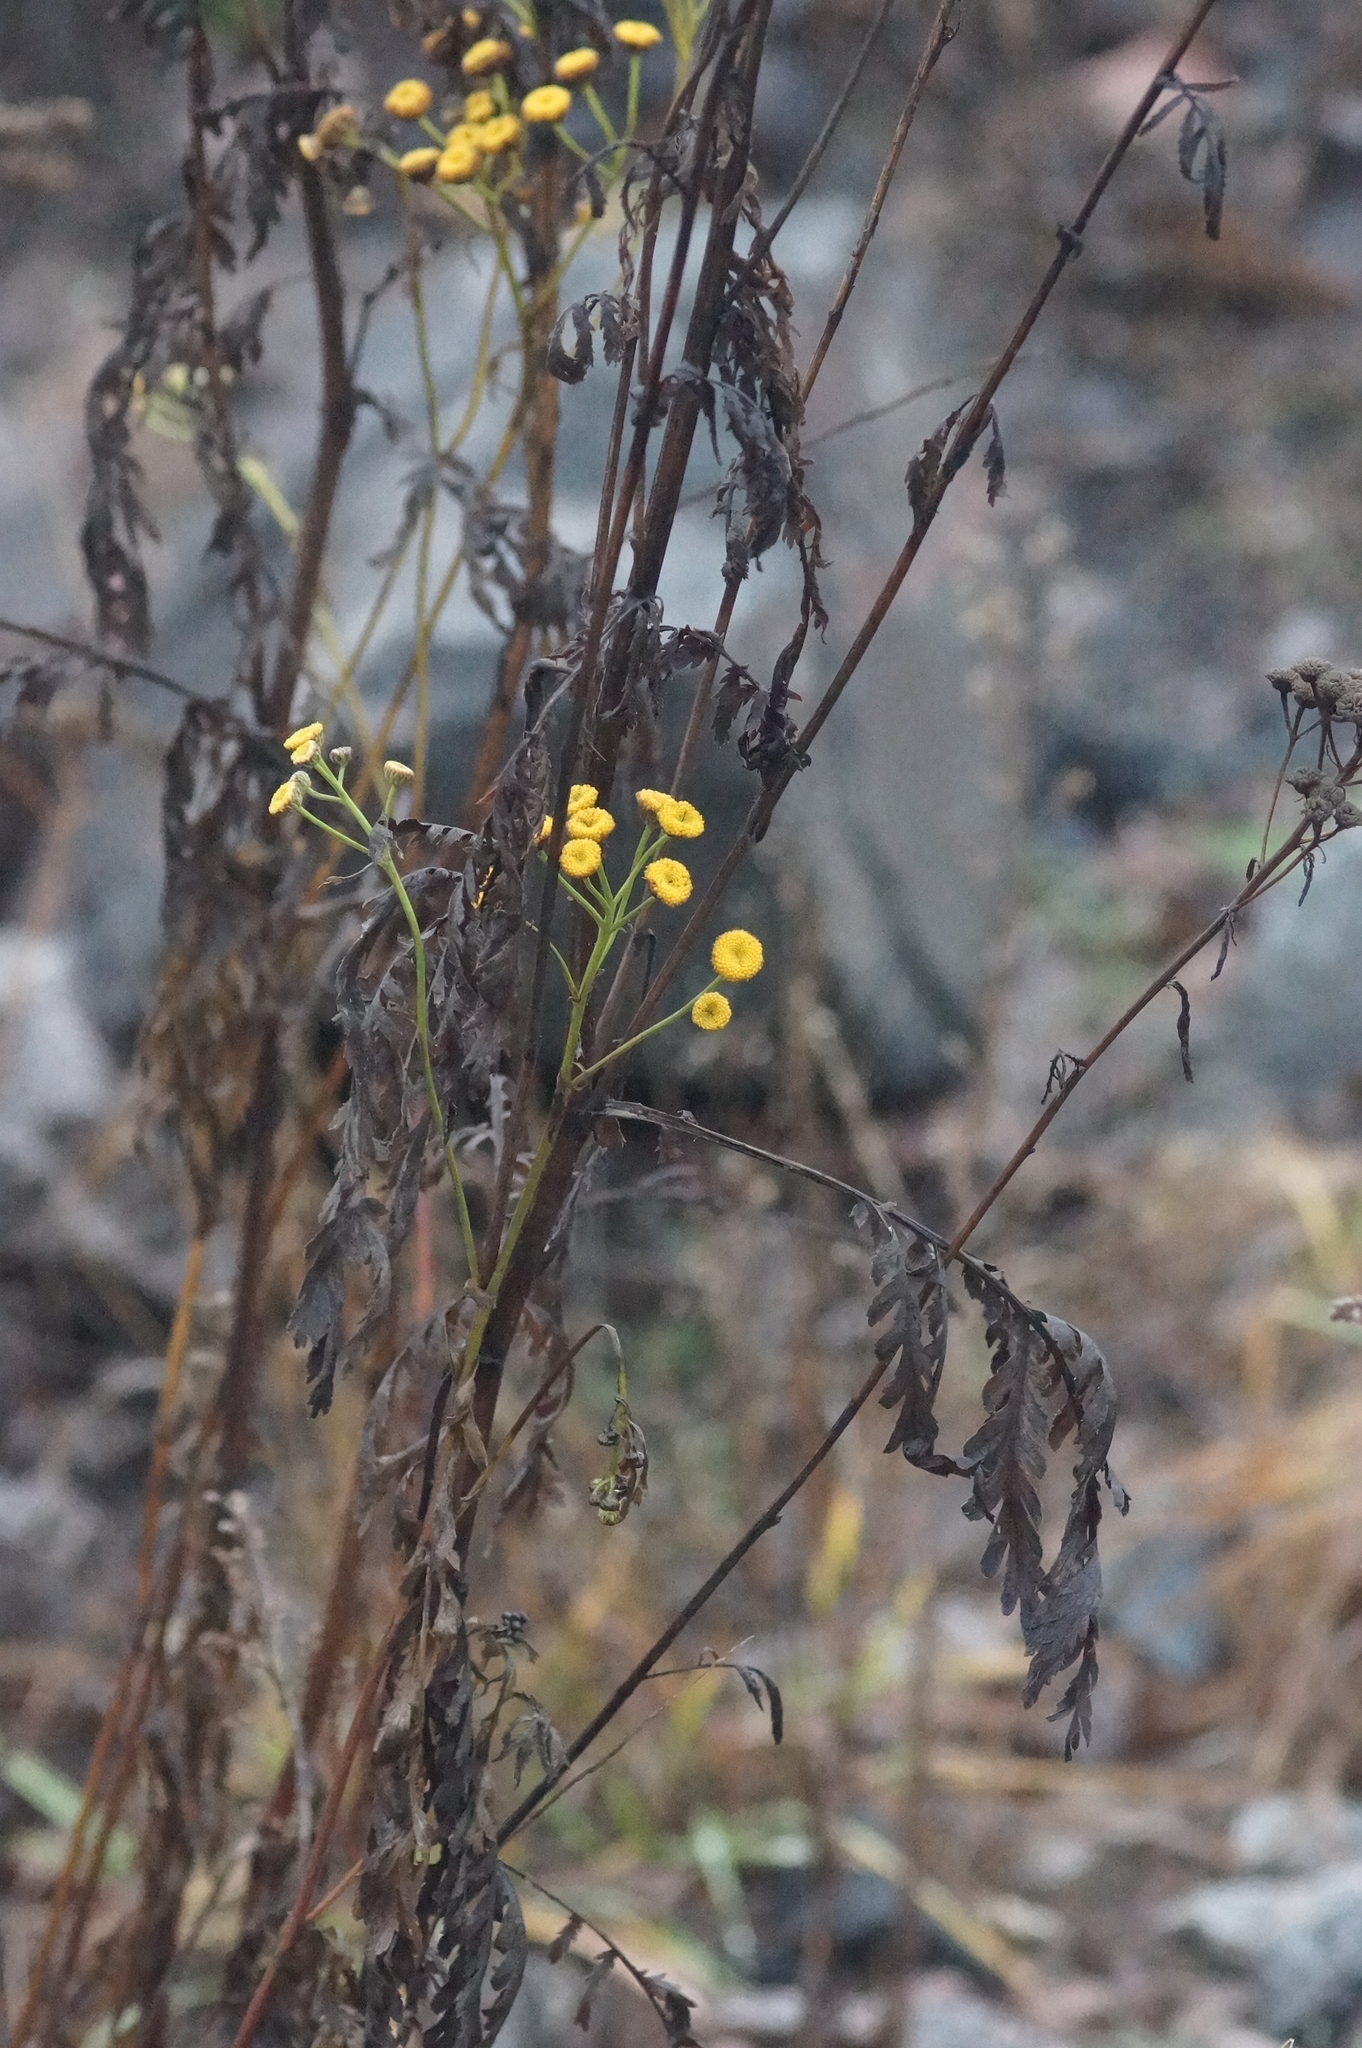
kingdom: Plantae
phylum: Tracheophyta
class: Magnoliopsida
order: Asterales
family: Asteraceae
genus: Tanacetum
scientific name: Tanacetum vulgare
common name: Common tansy
